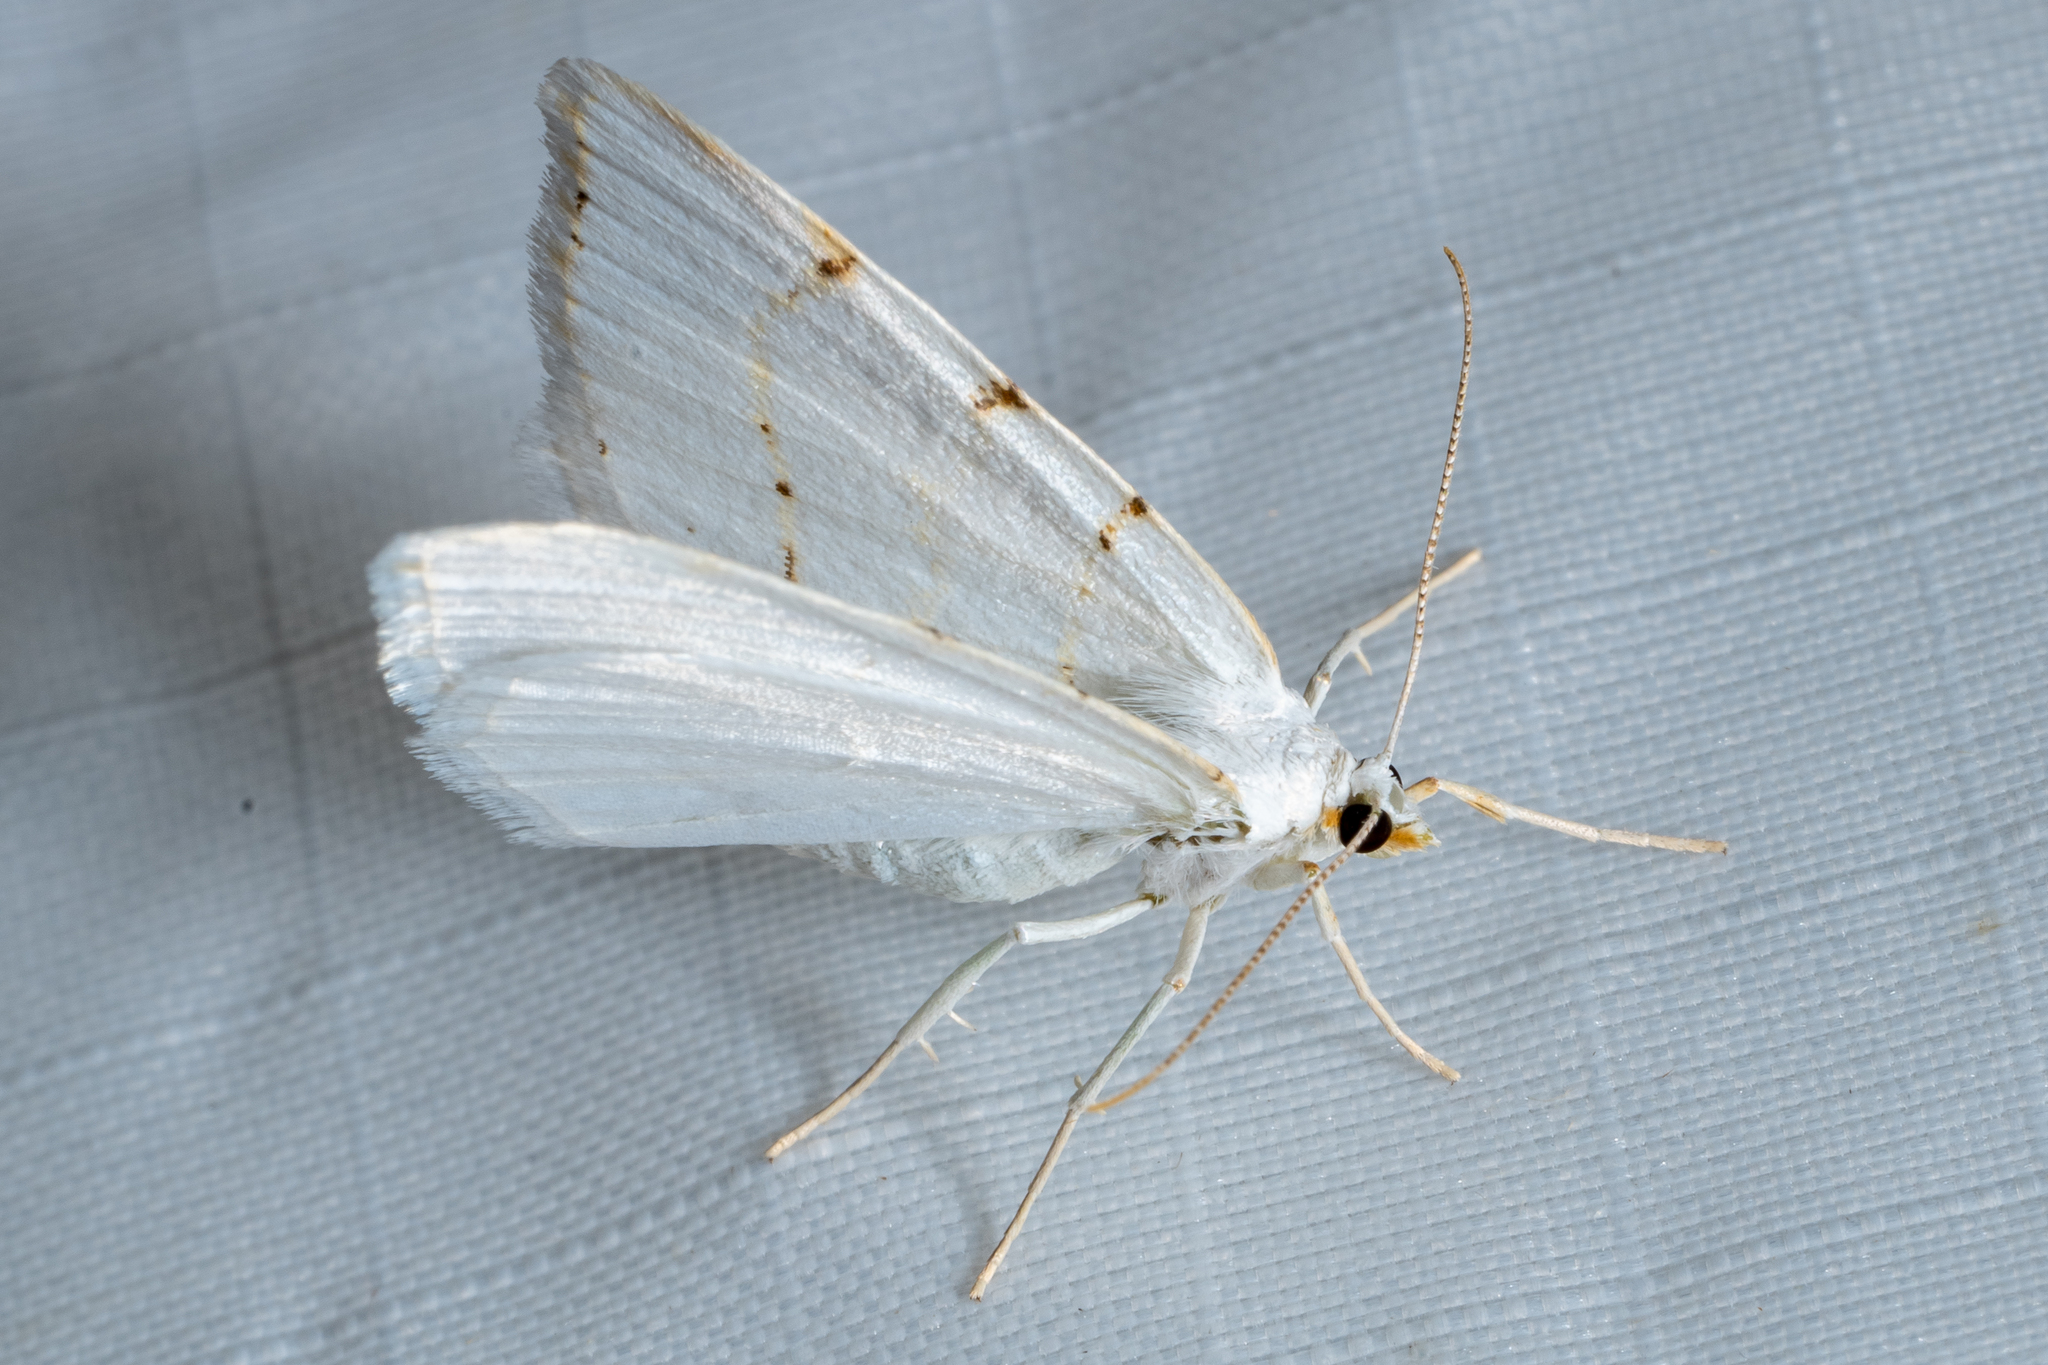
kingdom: Animalia
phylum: Arthropoda
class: Insecta
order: Lepidoptera
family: Geometridae
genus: Macaria
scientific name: Macaria pustularia
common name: Lesser maple spanworm moth
